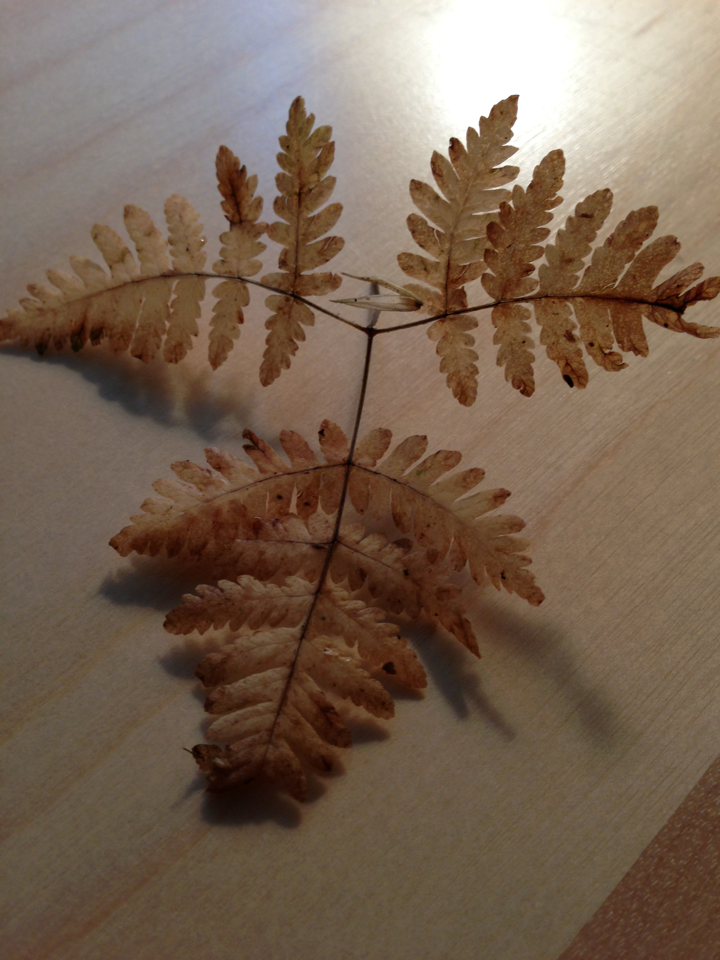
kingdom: Plantae
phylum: Tracheophyta
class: Polypodiopsida
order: Polypodiales
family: Cystopteridaceae
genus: Gymnocarpium
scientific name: Gymnocarpium dryopteris
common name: Oak fern
